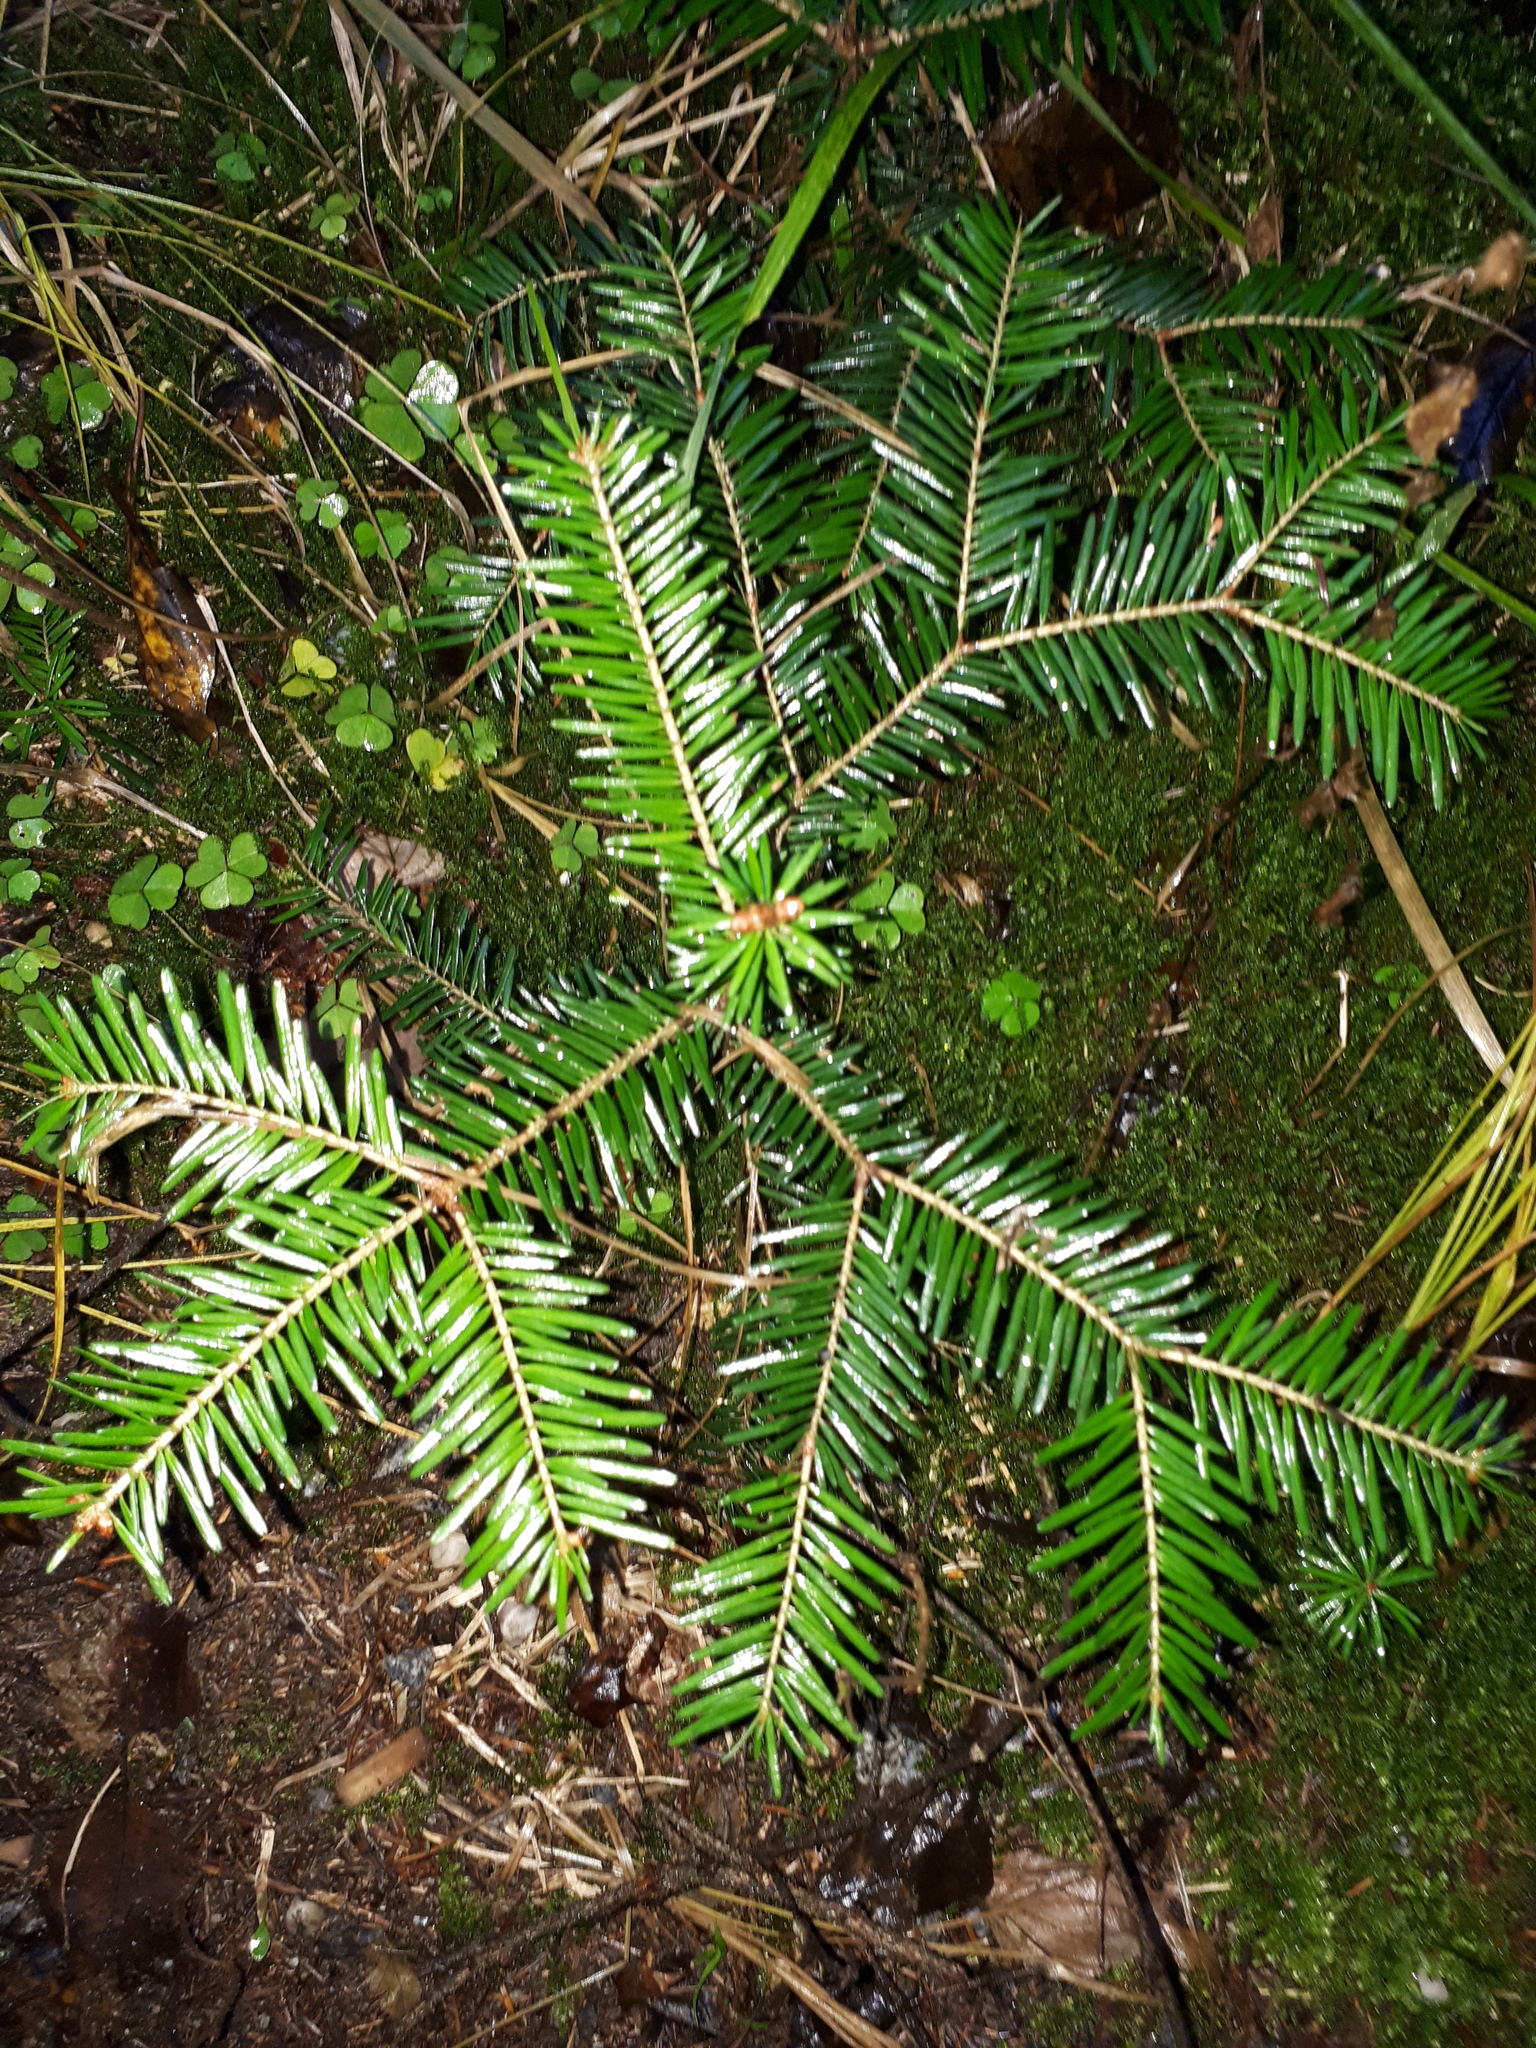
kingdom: Plantae
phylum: Tracheophyta
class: Pinopsida
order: Pinales
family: Pinaceae
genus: Abies
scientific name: Abies alba
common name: Silver fir
